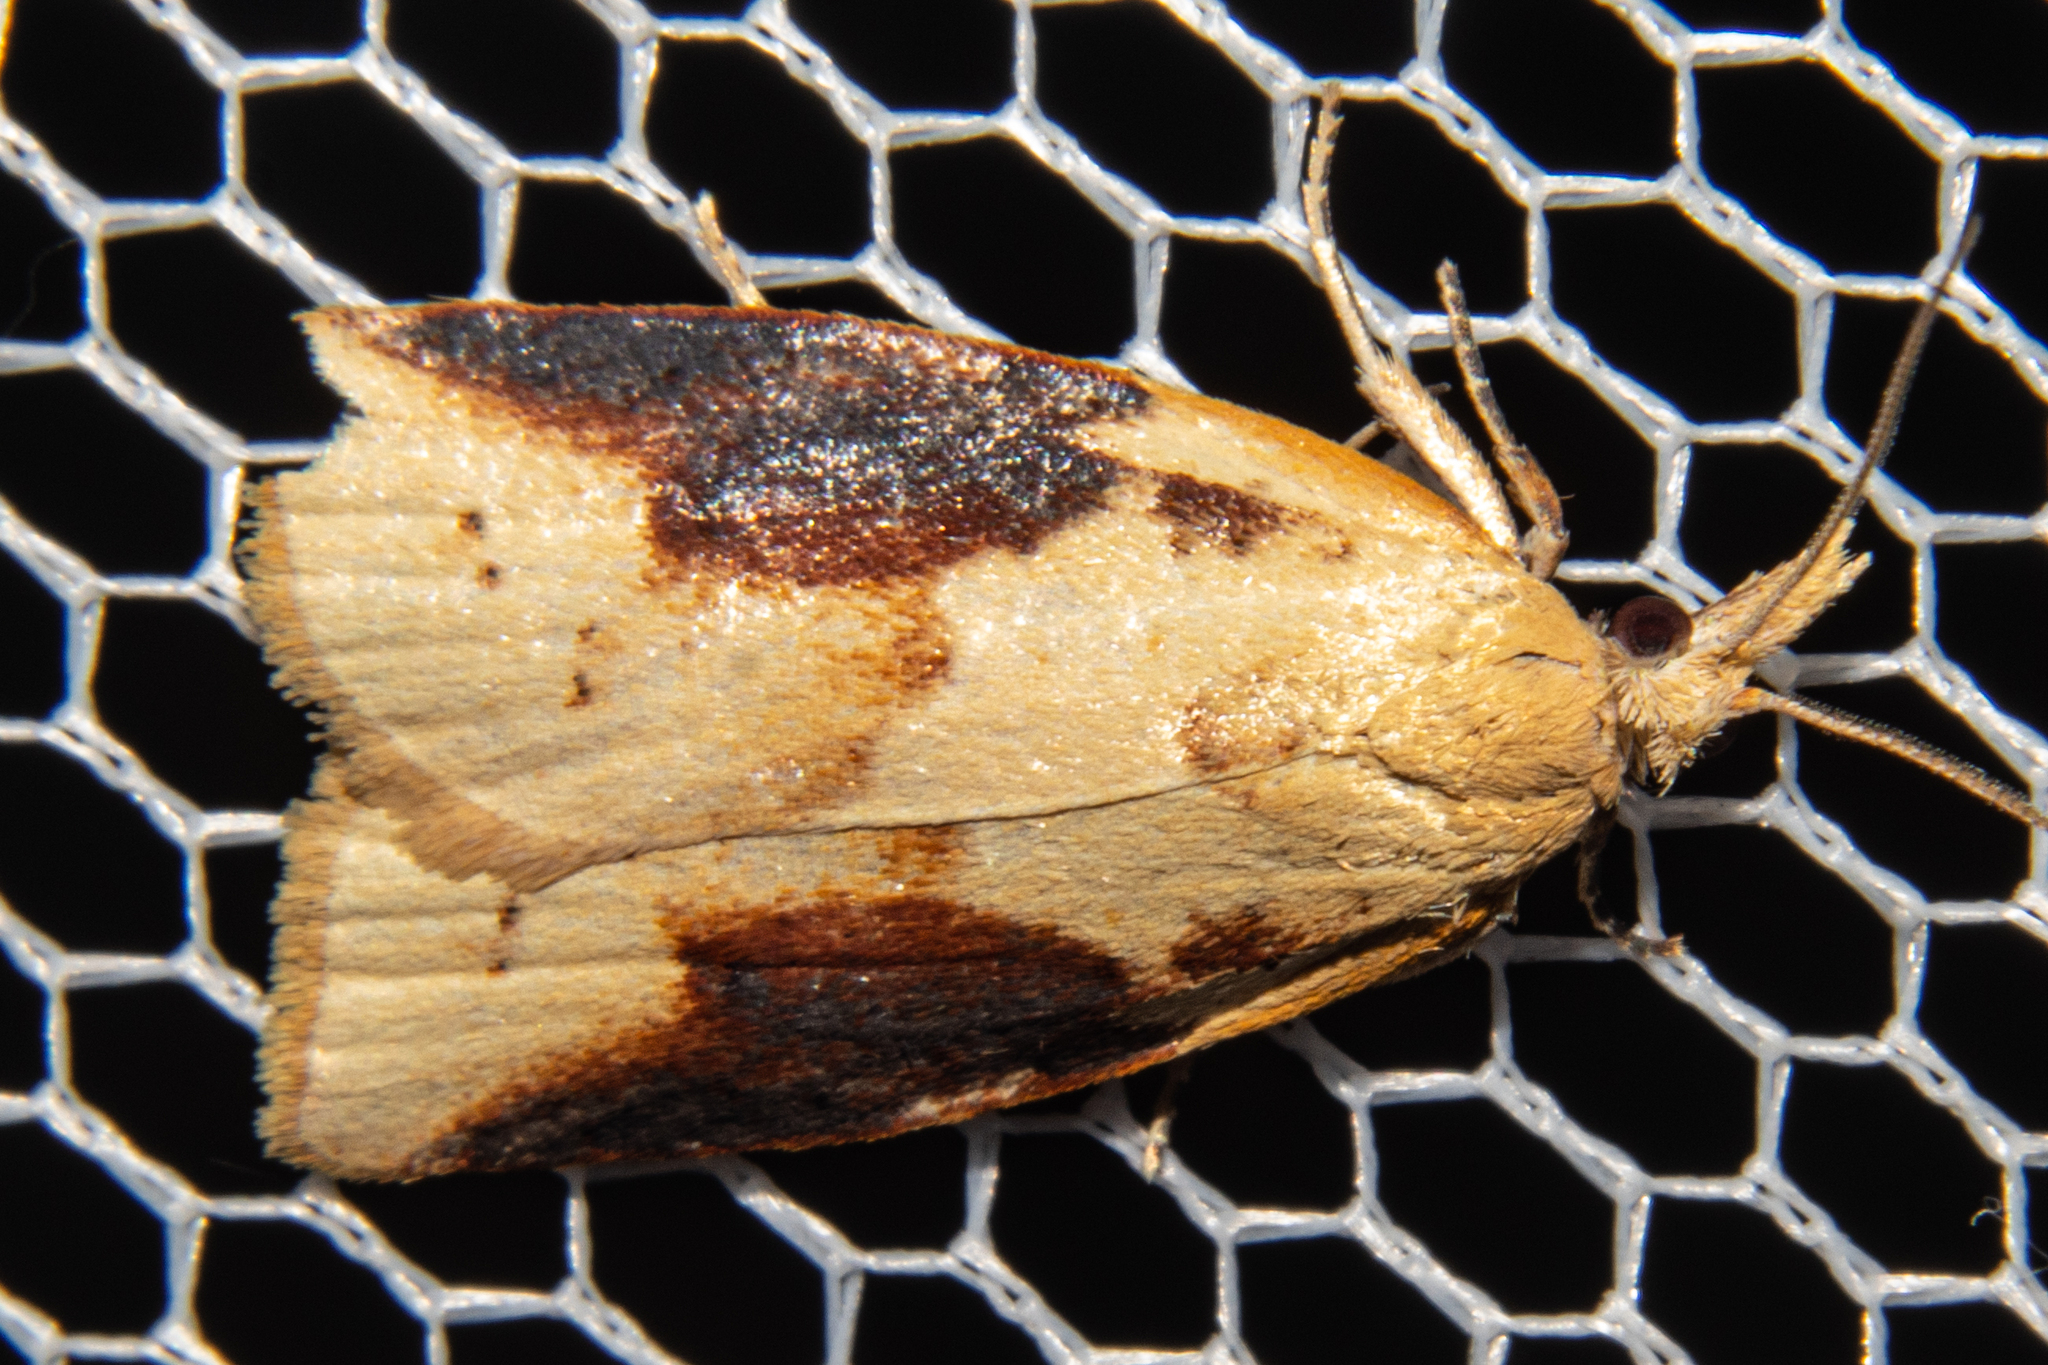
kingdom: Animalia
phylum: Arthropoda
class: Insecta
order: Lepidoptera
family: Tortricidae
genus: Apoctena
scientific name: Apoctena conditana
